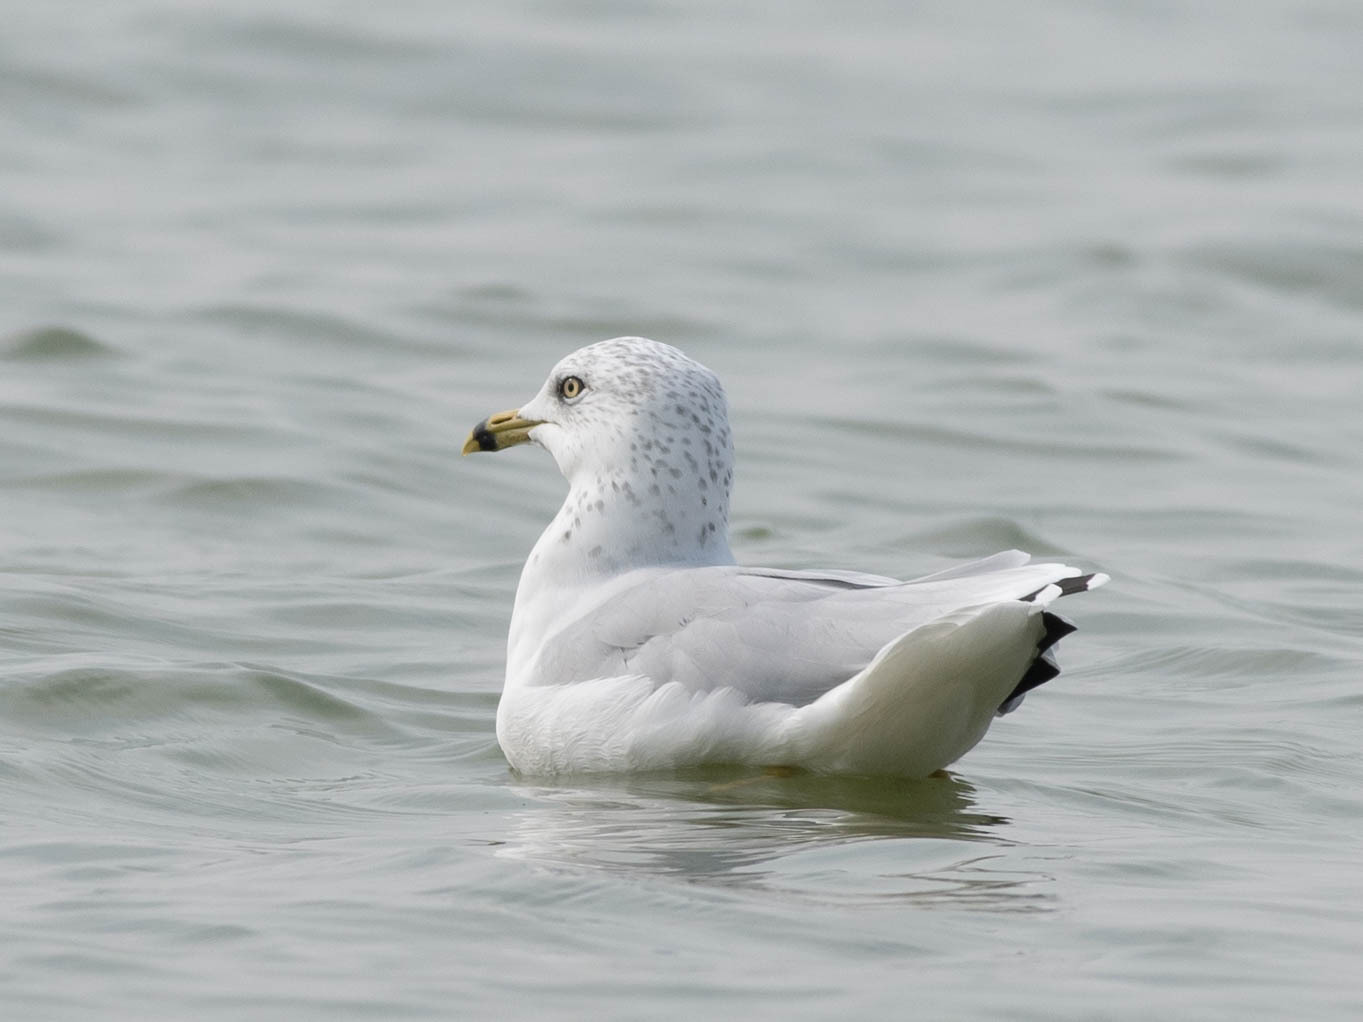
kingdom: Animalia
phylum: Chordata
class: Aves
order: Charadriiformes
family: Laridae
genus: Larus
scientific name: Larus delawarensis
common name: Ring-billed gull
